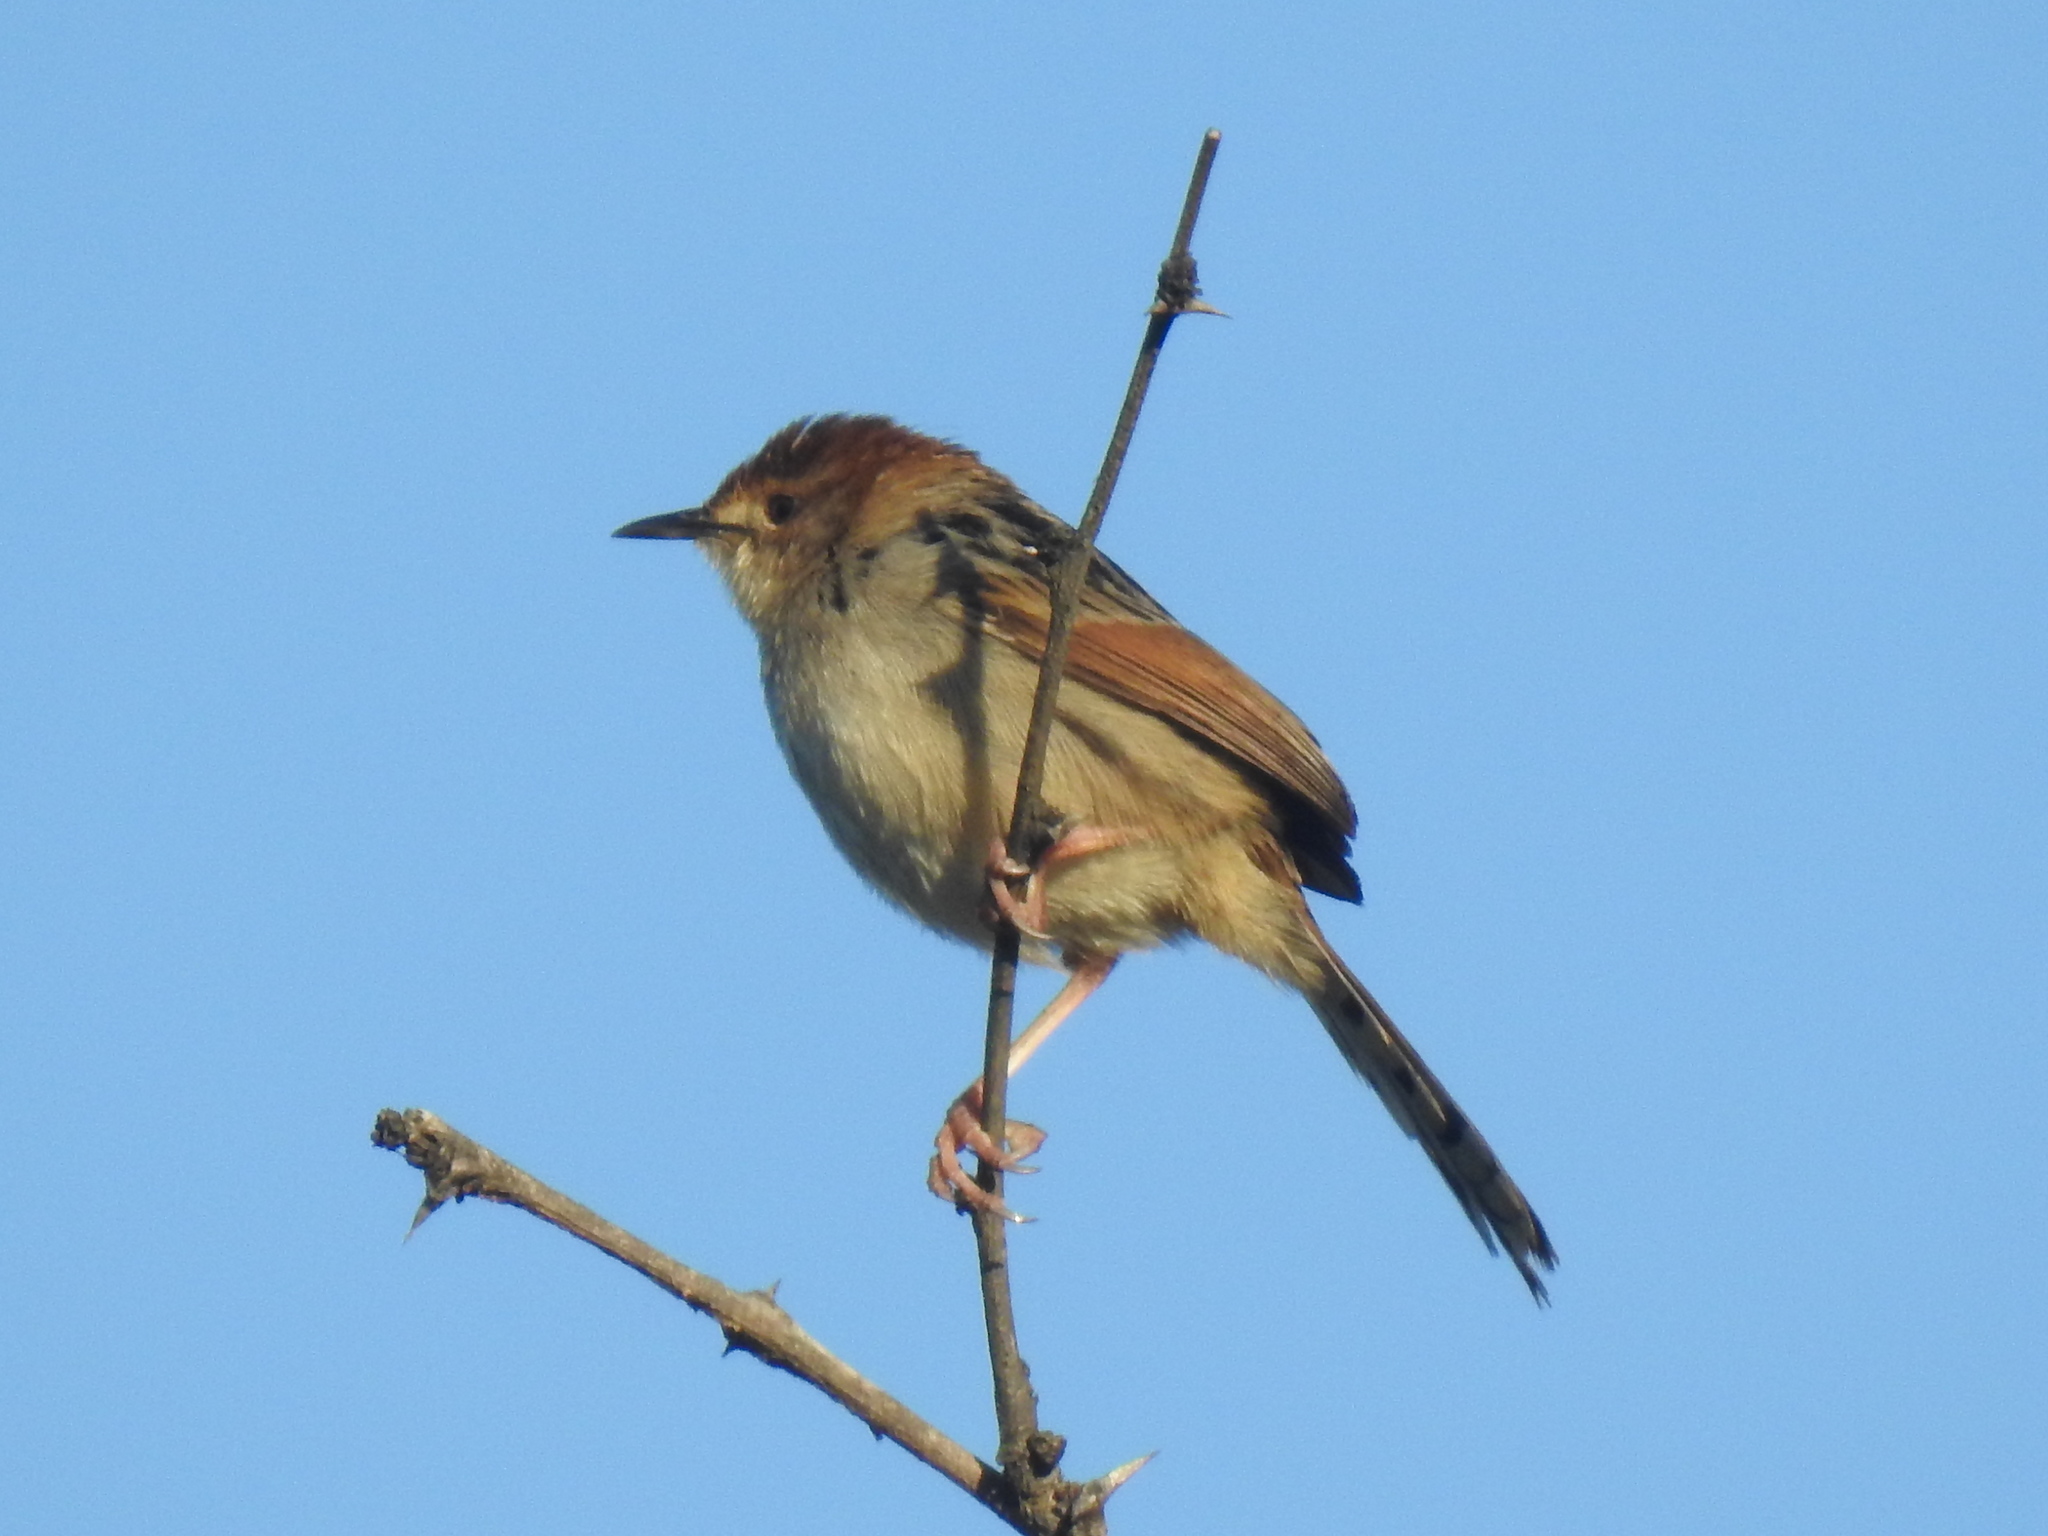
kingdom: Animalia
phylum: Chordata
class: Aves
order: Passeriformes
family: Cisticolidae
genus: Cisticola
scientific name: Cisticola tinniens
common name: Levaillant's cisticola
